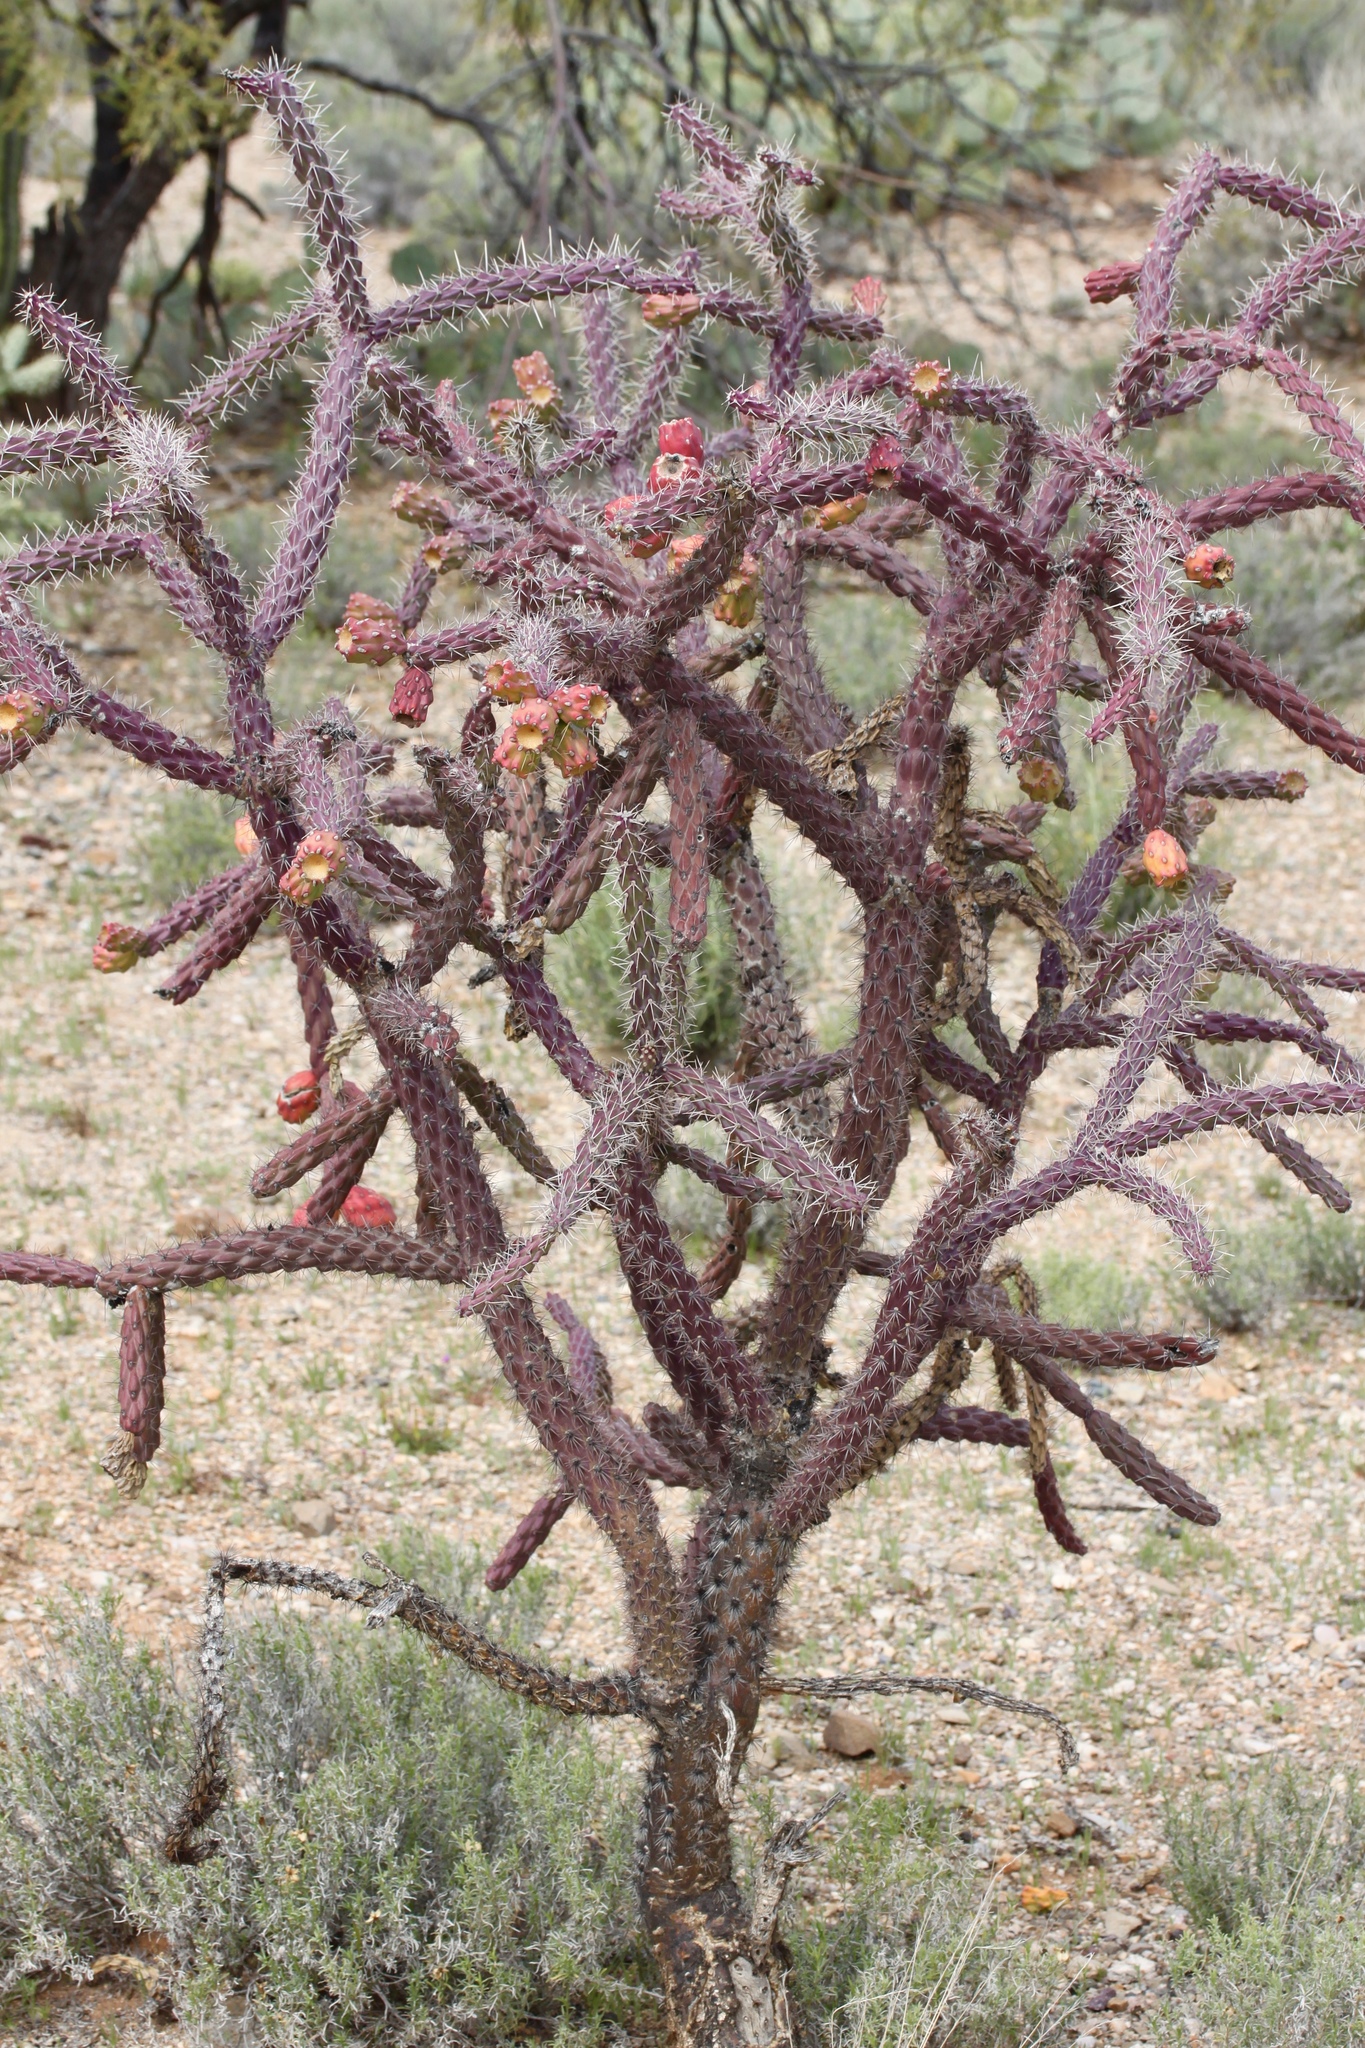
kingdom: Plantae
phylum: Tracheophyta
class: Magnoliopsida
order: Caryophyllales
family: Cactaceae
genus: Cylindropuntia
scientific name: Cylindropuntia thurberi
